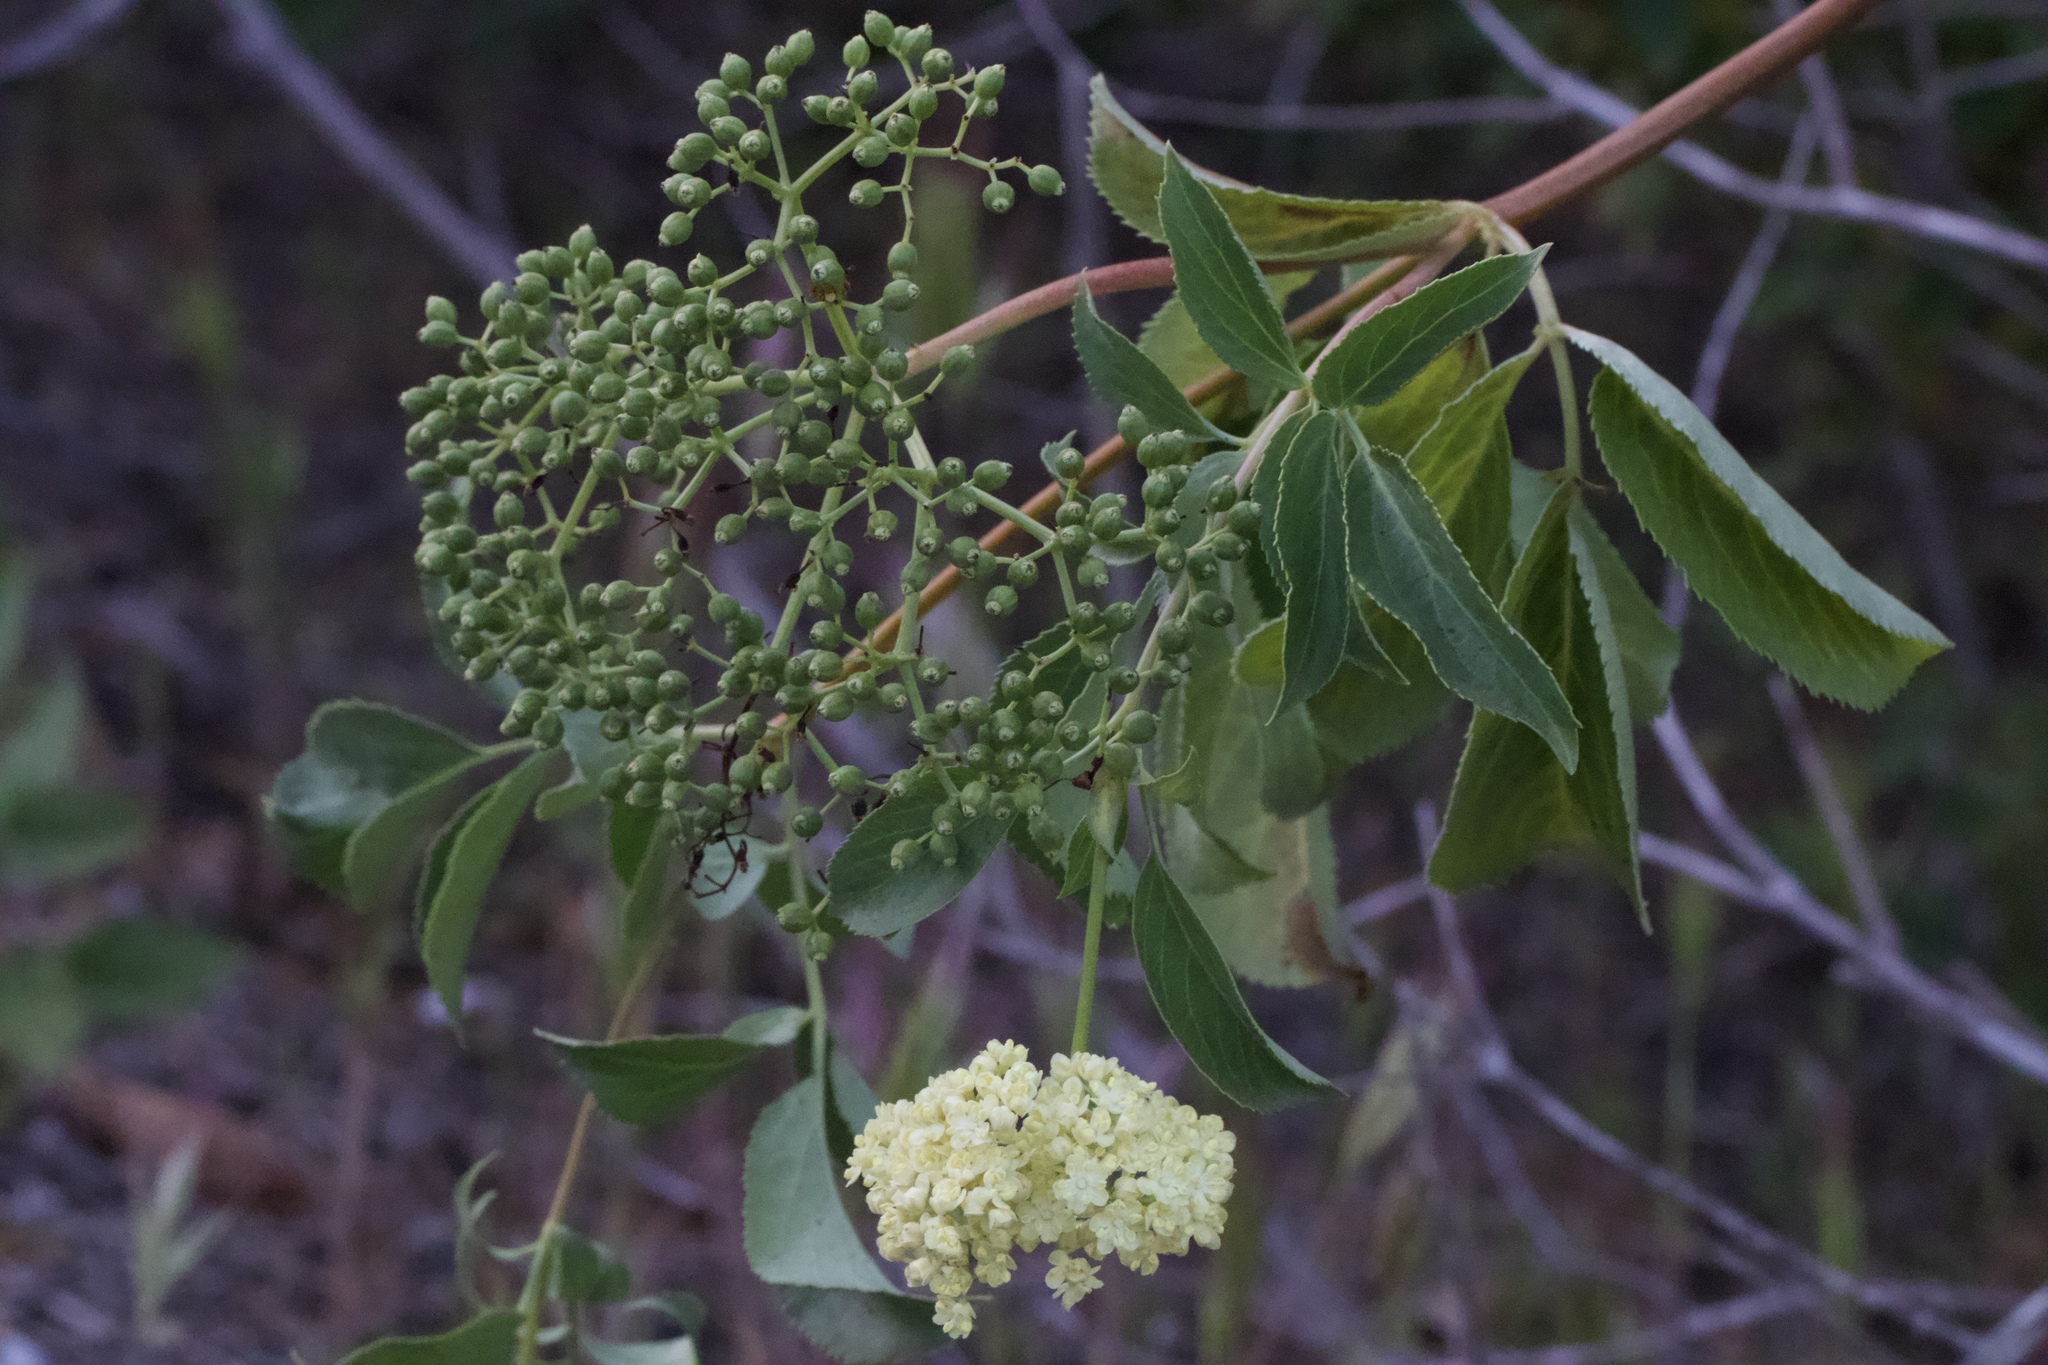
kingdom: Plantae
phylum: Tracheophyta
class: Magnoliopsida
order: Dipsacales
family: Viburnaceae
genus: Sambucus
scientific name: Sambucus cerulea
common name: Blue elder
